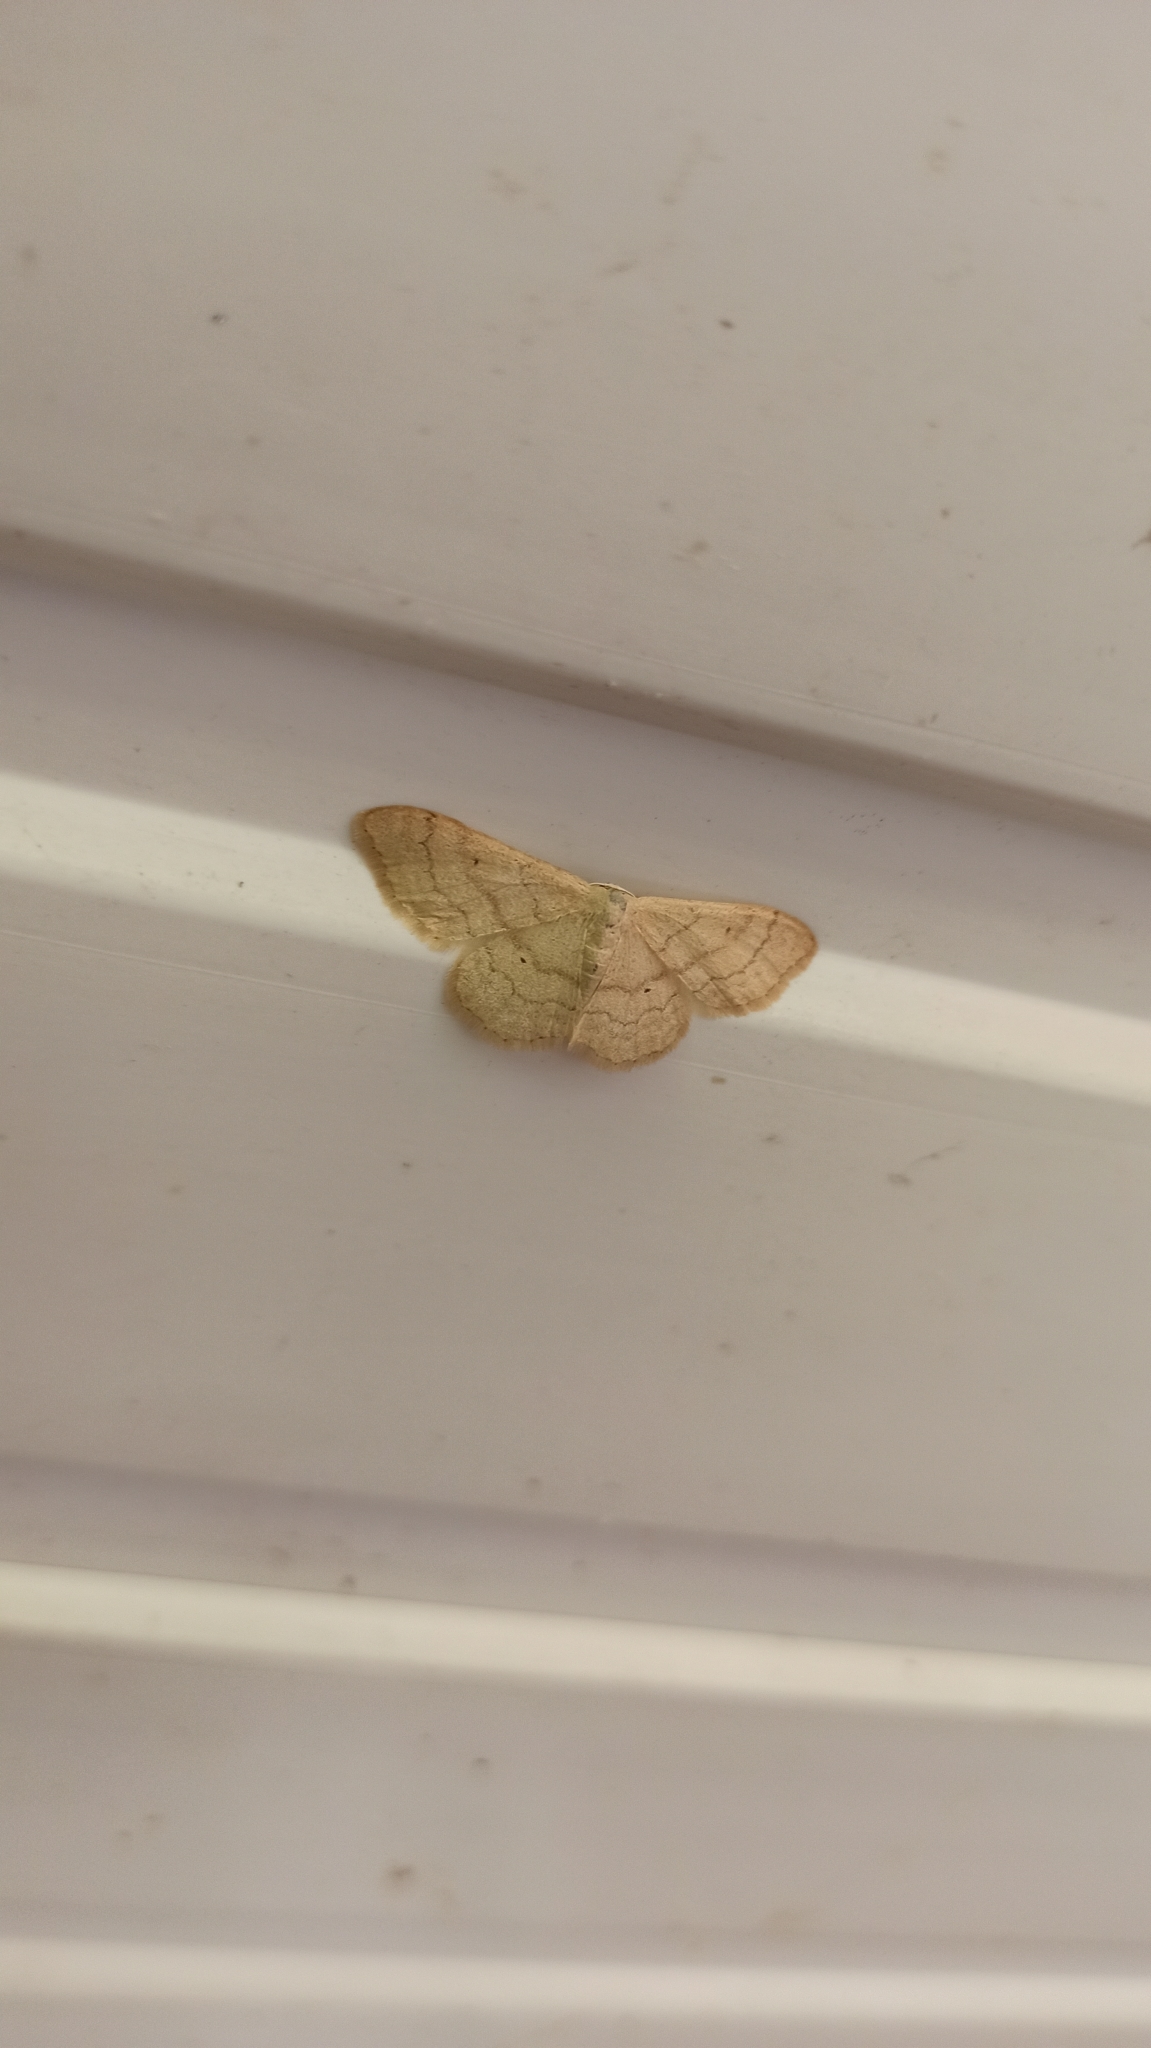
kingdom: Animalia
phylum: Arthropoda
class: Insecta
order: Lepidoptera
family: Geometridae
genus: Idaea
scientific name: Idaea straminata
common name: Plain wave
